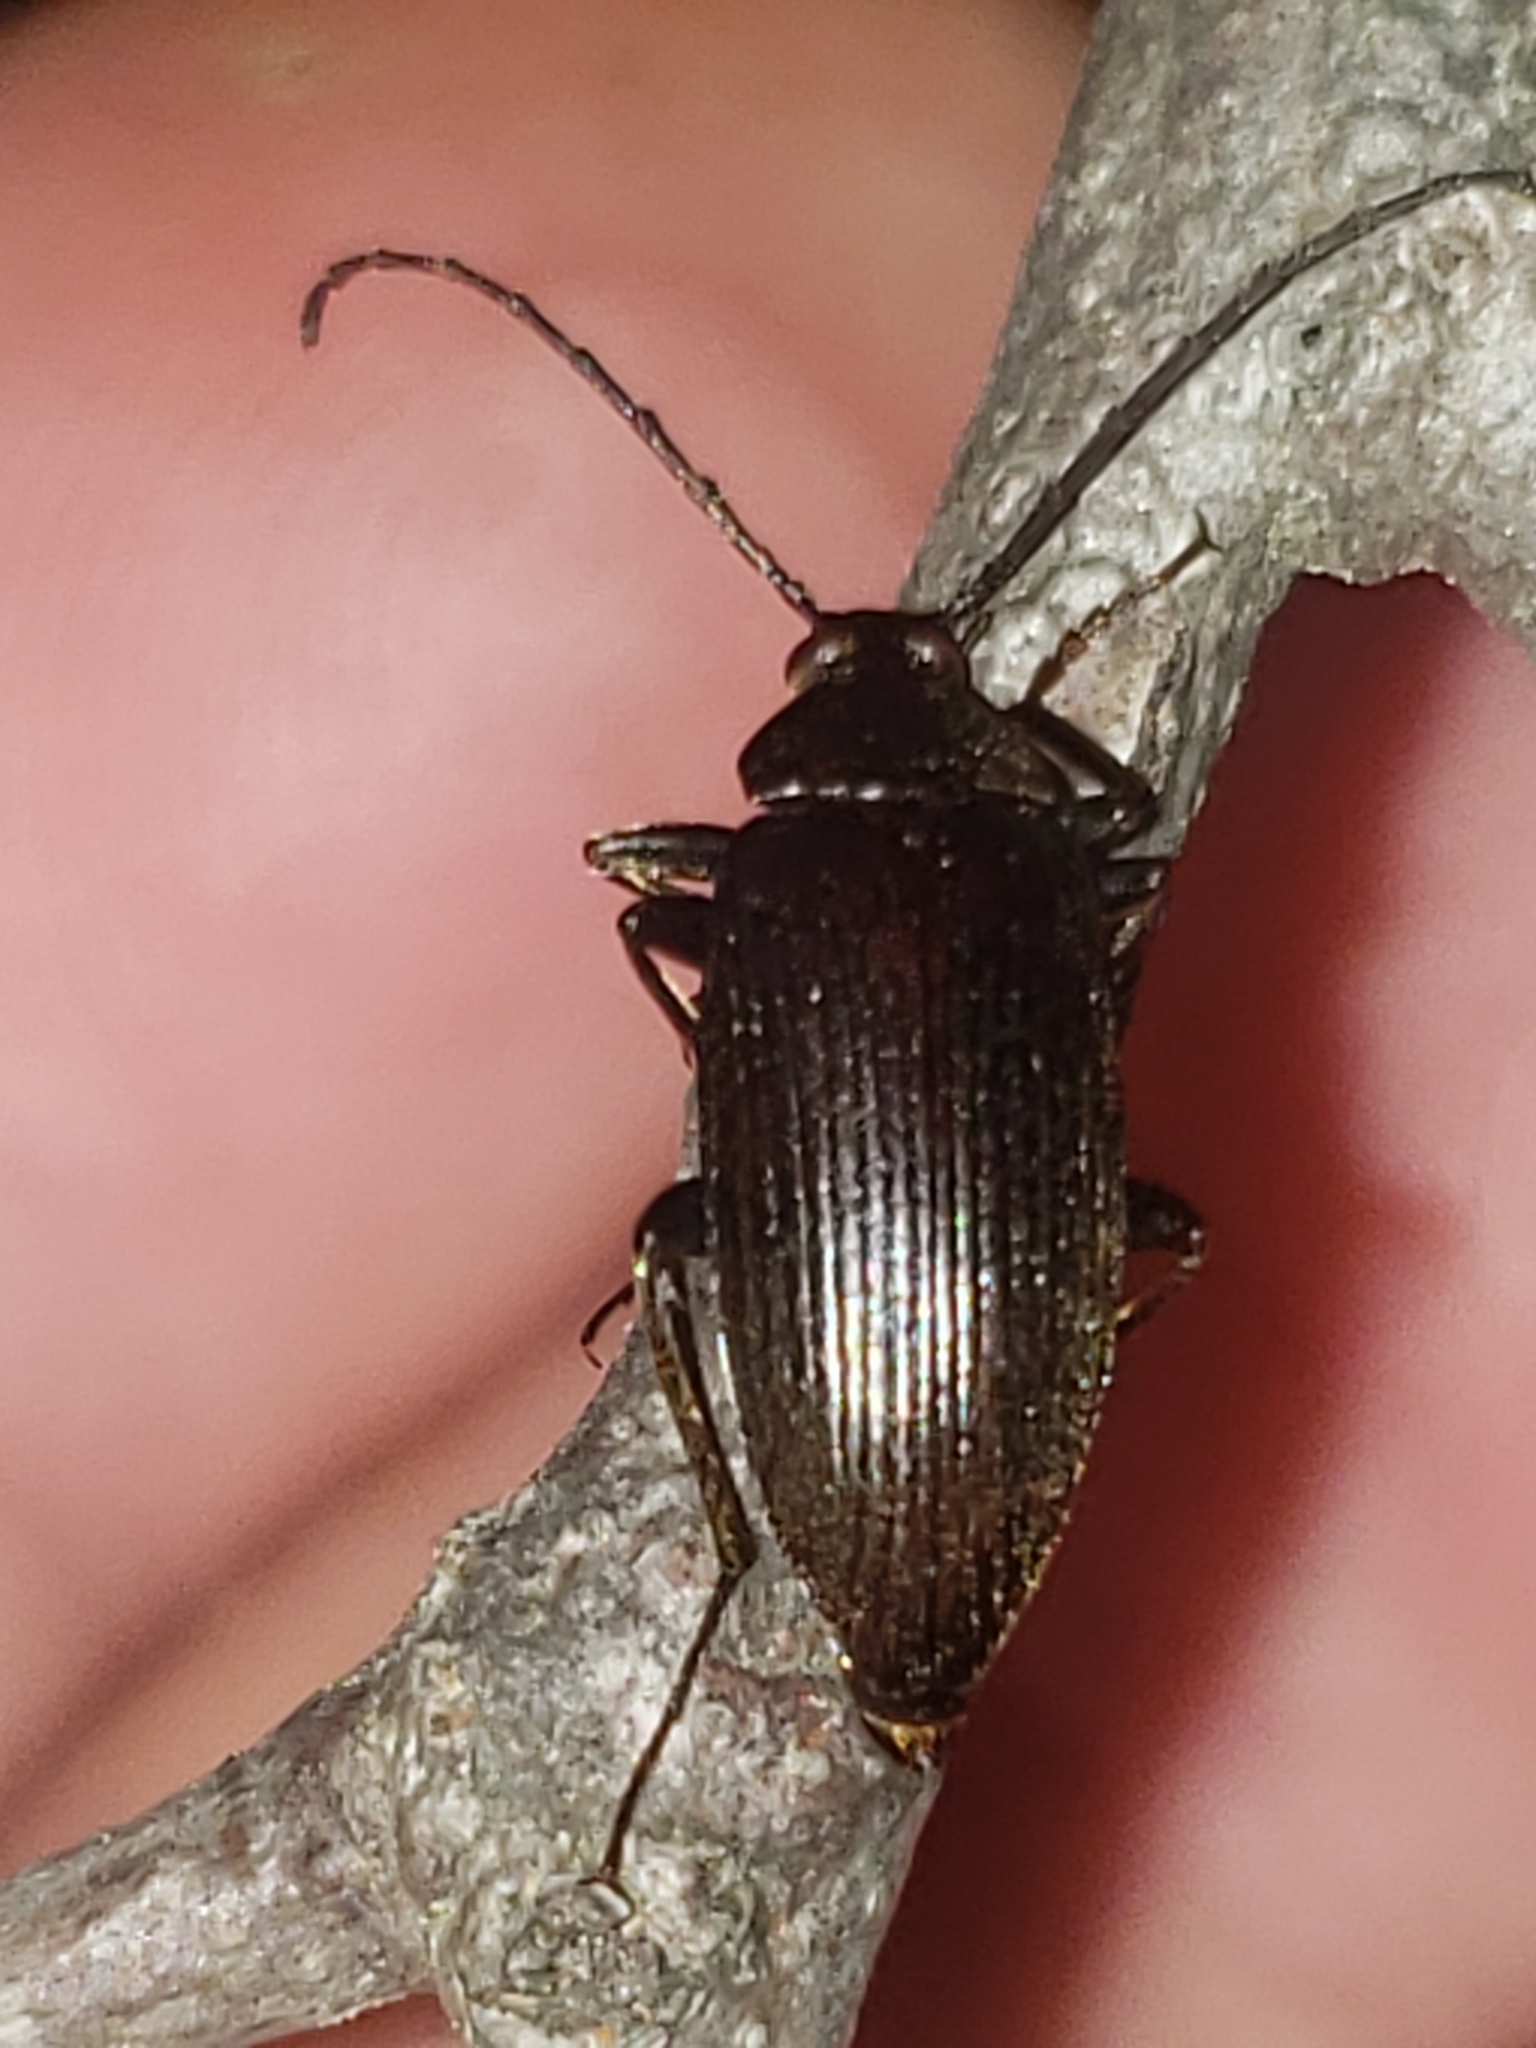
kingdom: Animalia
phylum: Arthropoda
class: Insecta
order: Coleoptera
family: Tenebrionidae
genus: Capnochroa
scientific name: Capnochroa fuliginosa
